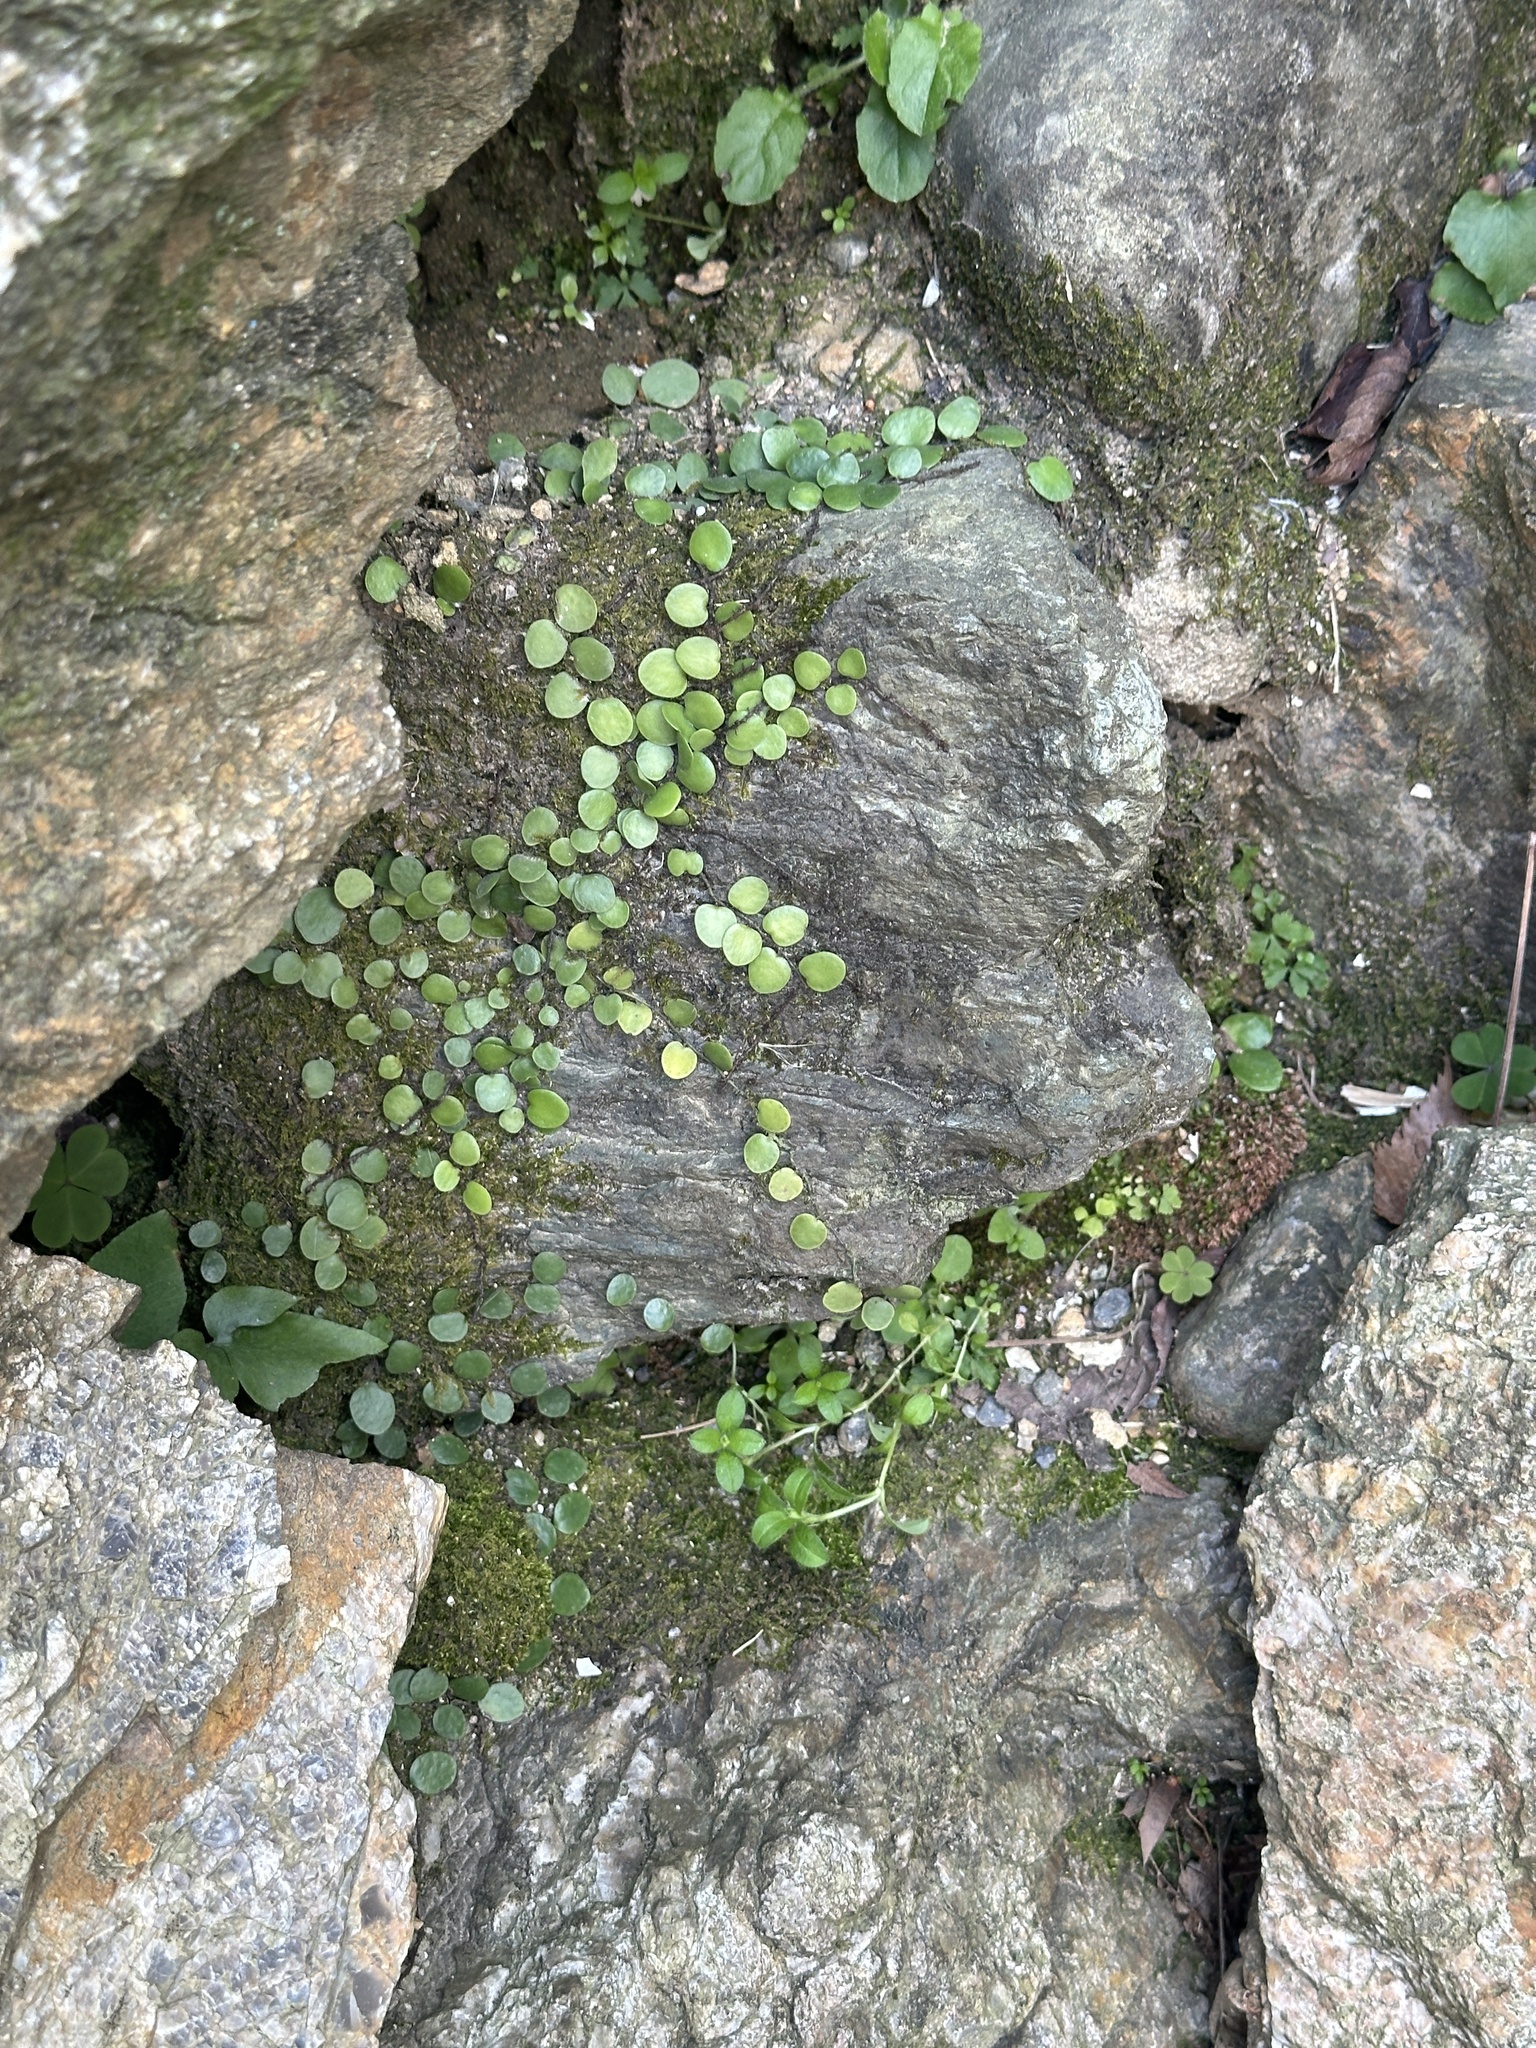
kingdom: Plantae
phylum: Tracheophyta
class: Polypodiopsida
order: Polypodiales
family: Polypodiaceae
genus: Lepisorus
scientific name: Lepisorus microphyllus
